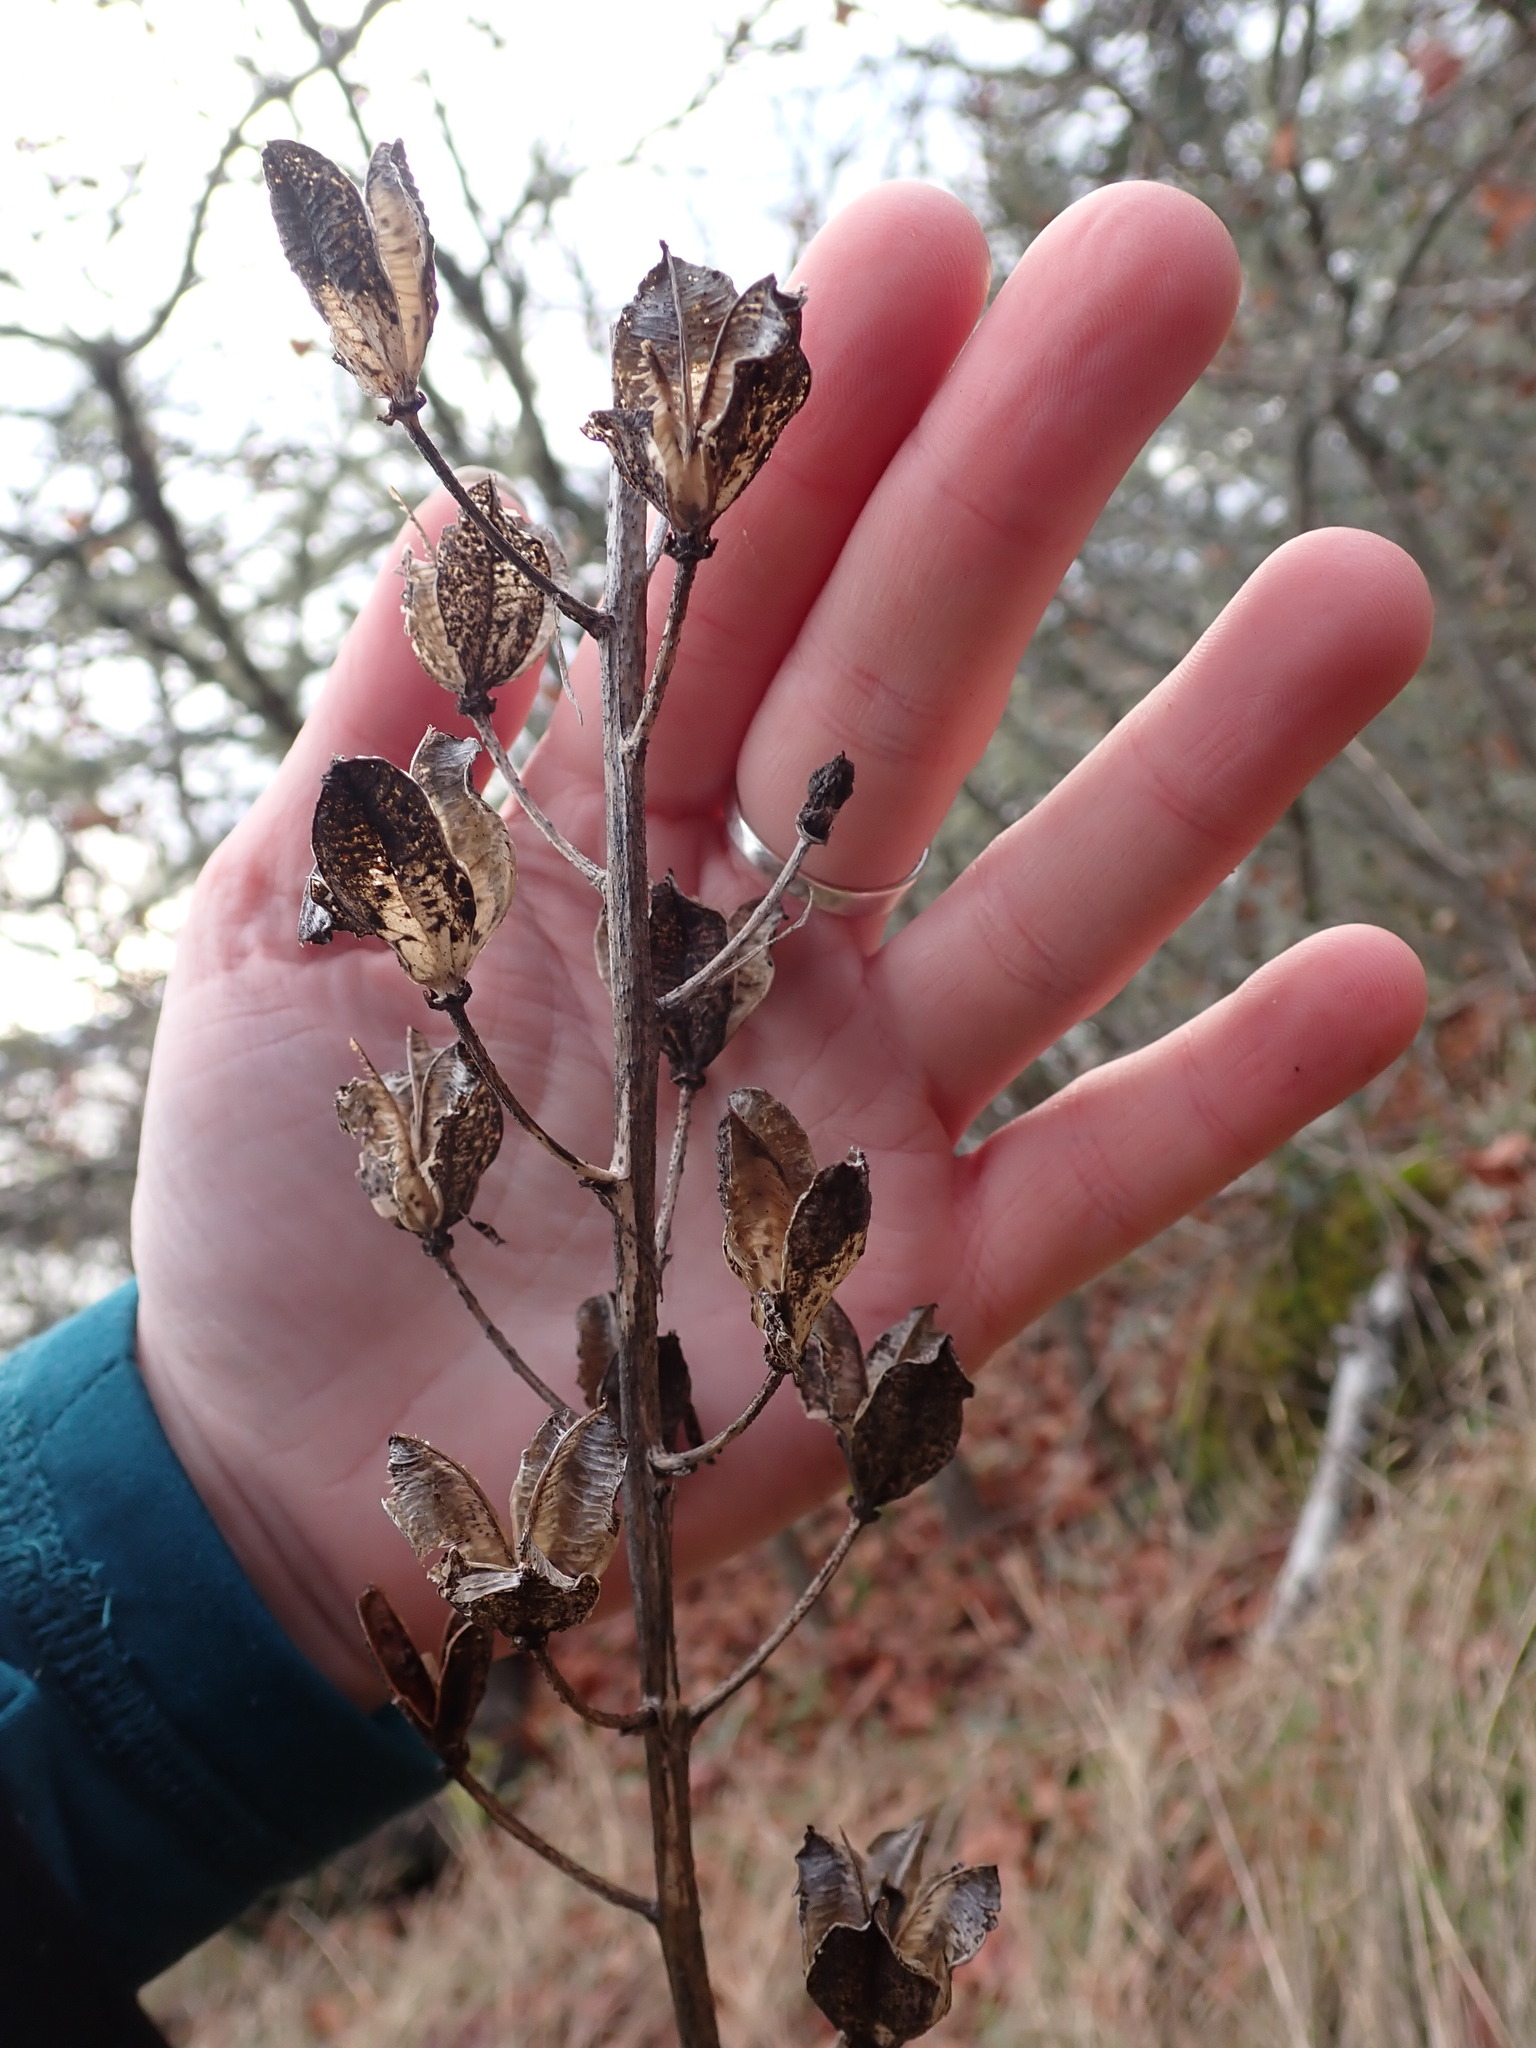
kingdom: Plantae
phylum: Tracheophyta
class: Liliopsida
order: Asparagales
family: Asparagaceae
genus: Camassia
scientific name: Camassia leichtlinii
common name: Leichtlin's camas
